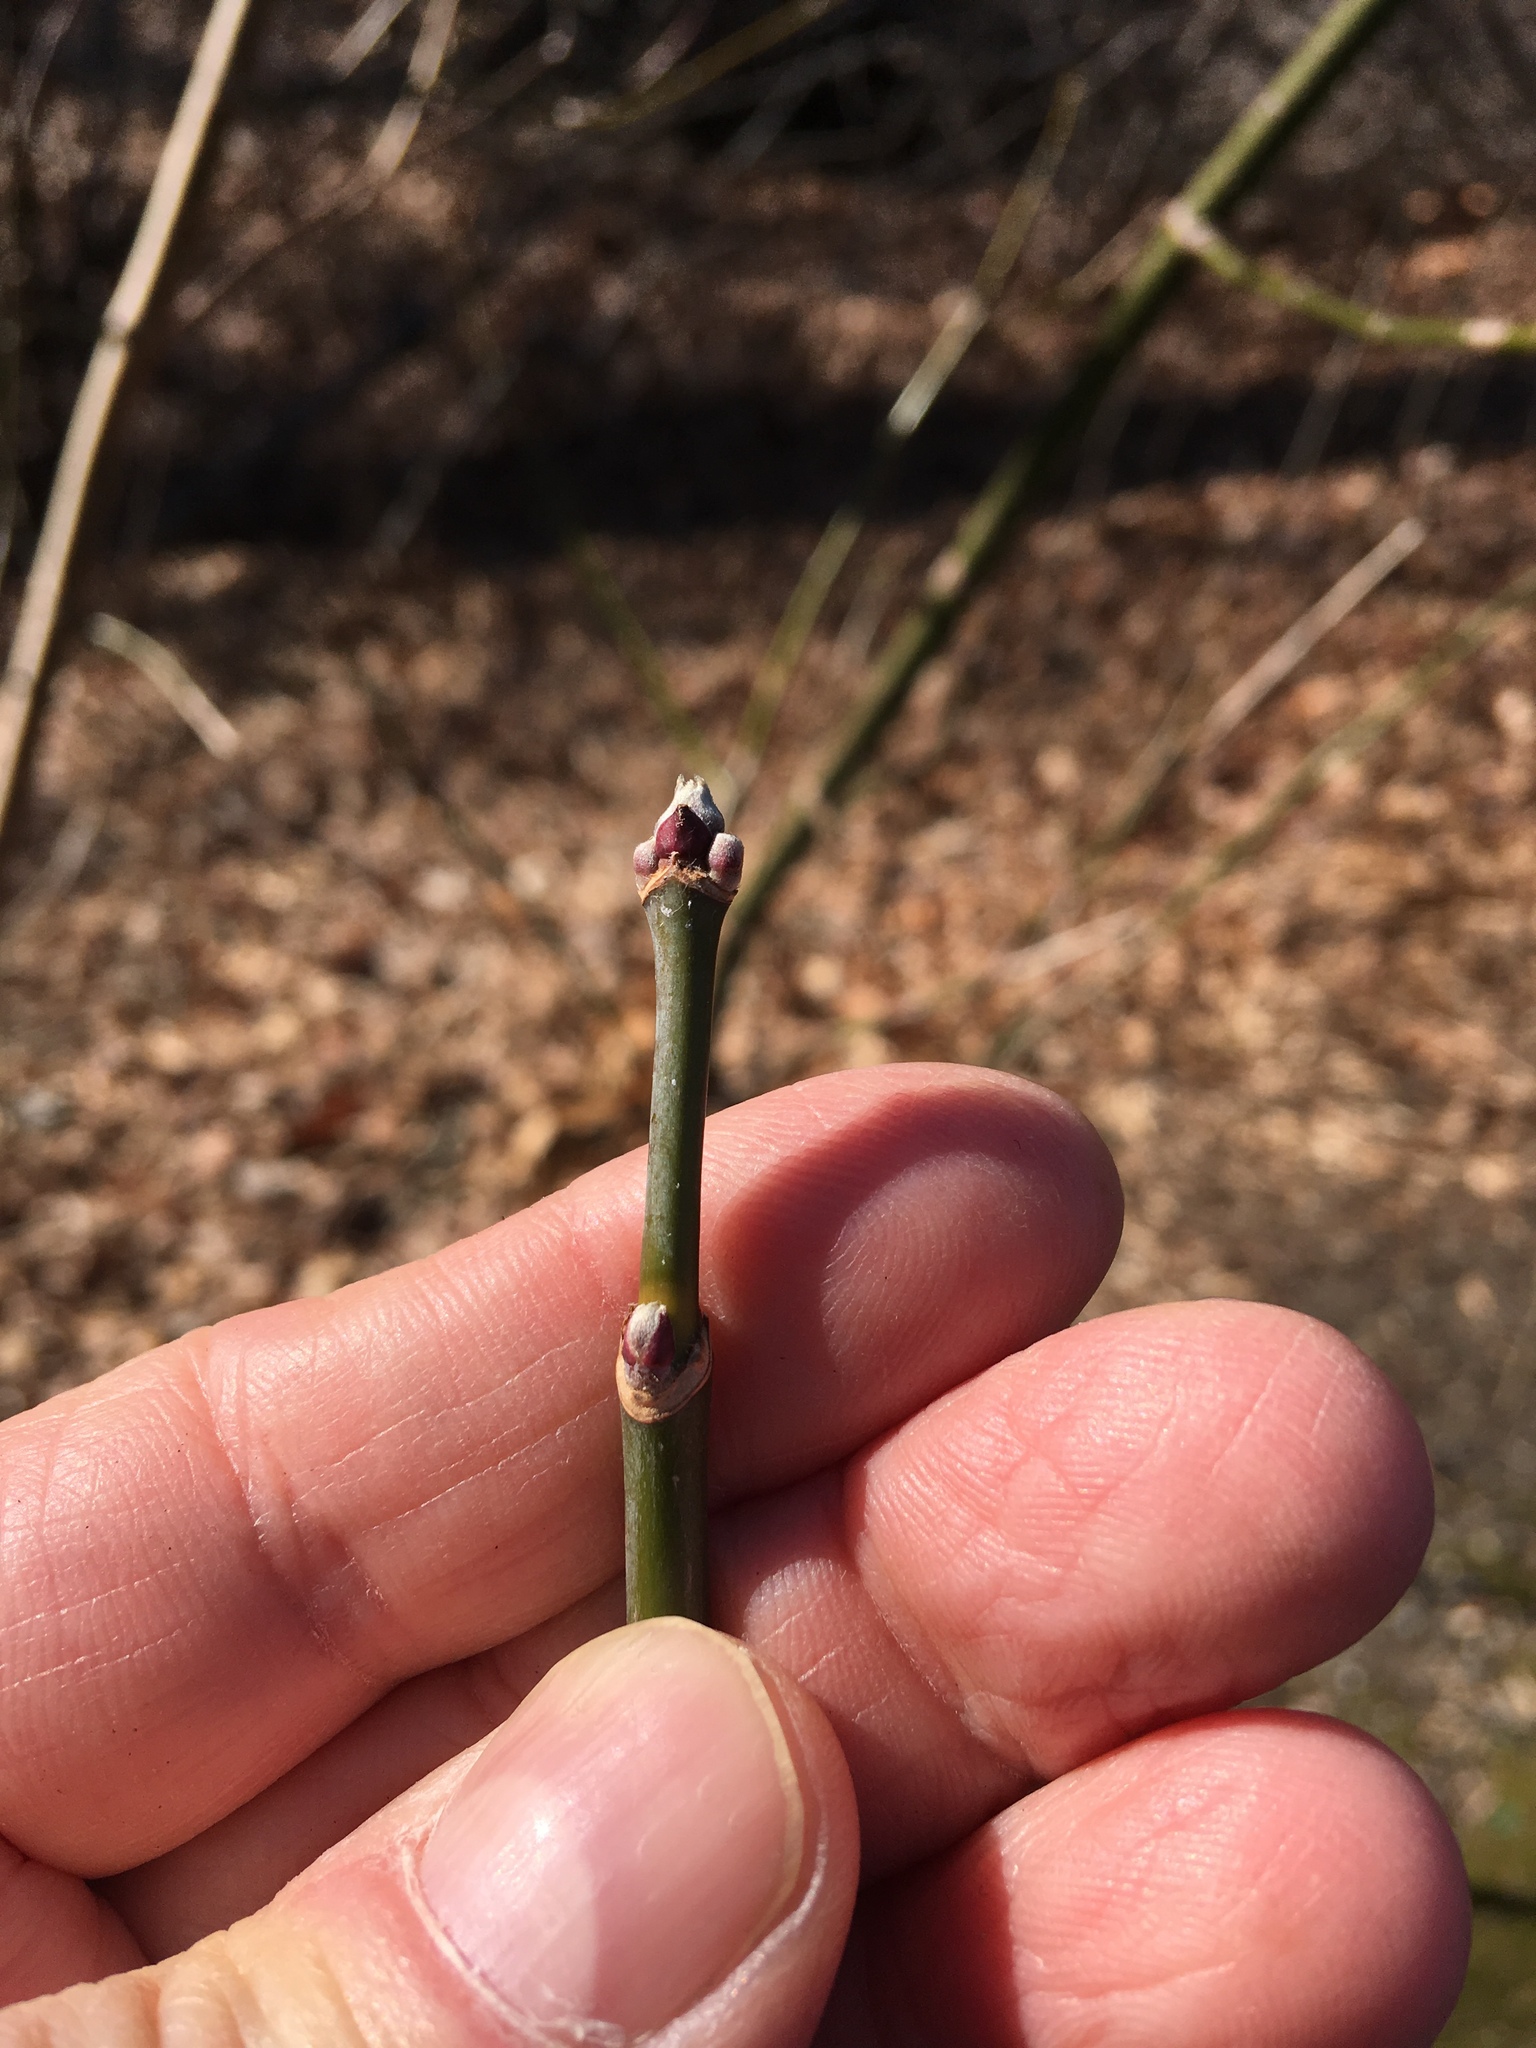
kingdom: Plantae
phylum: Tracheophyta
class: Magnoliopsida
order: Sapindales
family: Sapindaceae
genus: Acer
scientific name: Acer negundo
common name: Ashleaf maple
